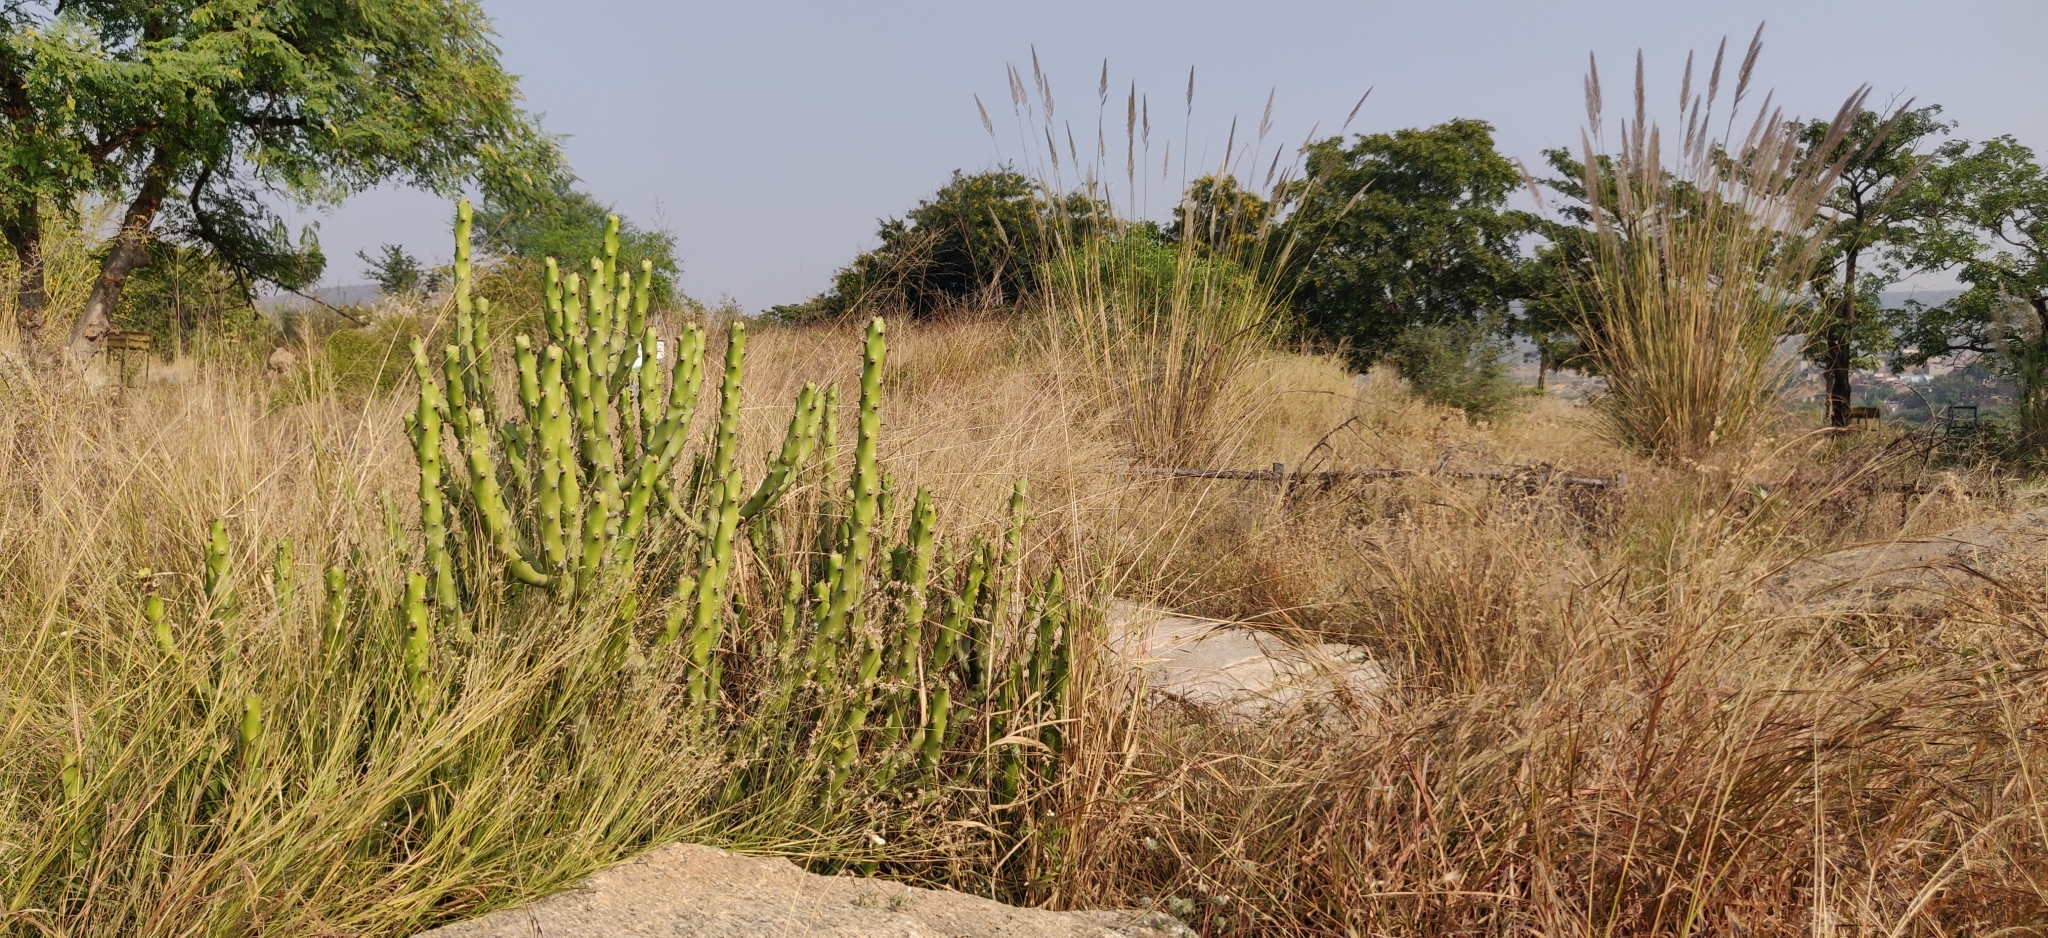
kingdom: Plantae
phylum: Tracheophyta
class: Magnoliopsida
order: Malpighiales
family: Euphorbiaceae
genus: Euphorbia
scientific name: Euphorbia caducifolia
